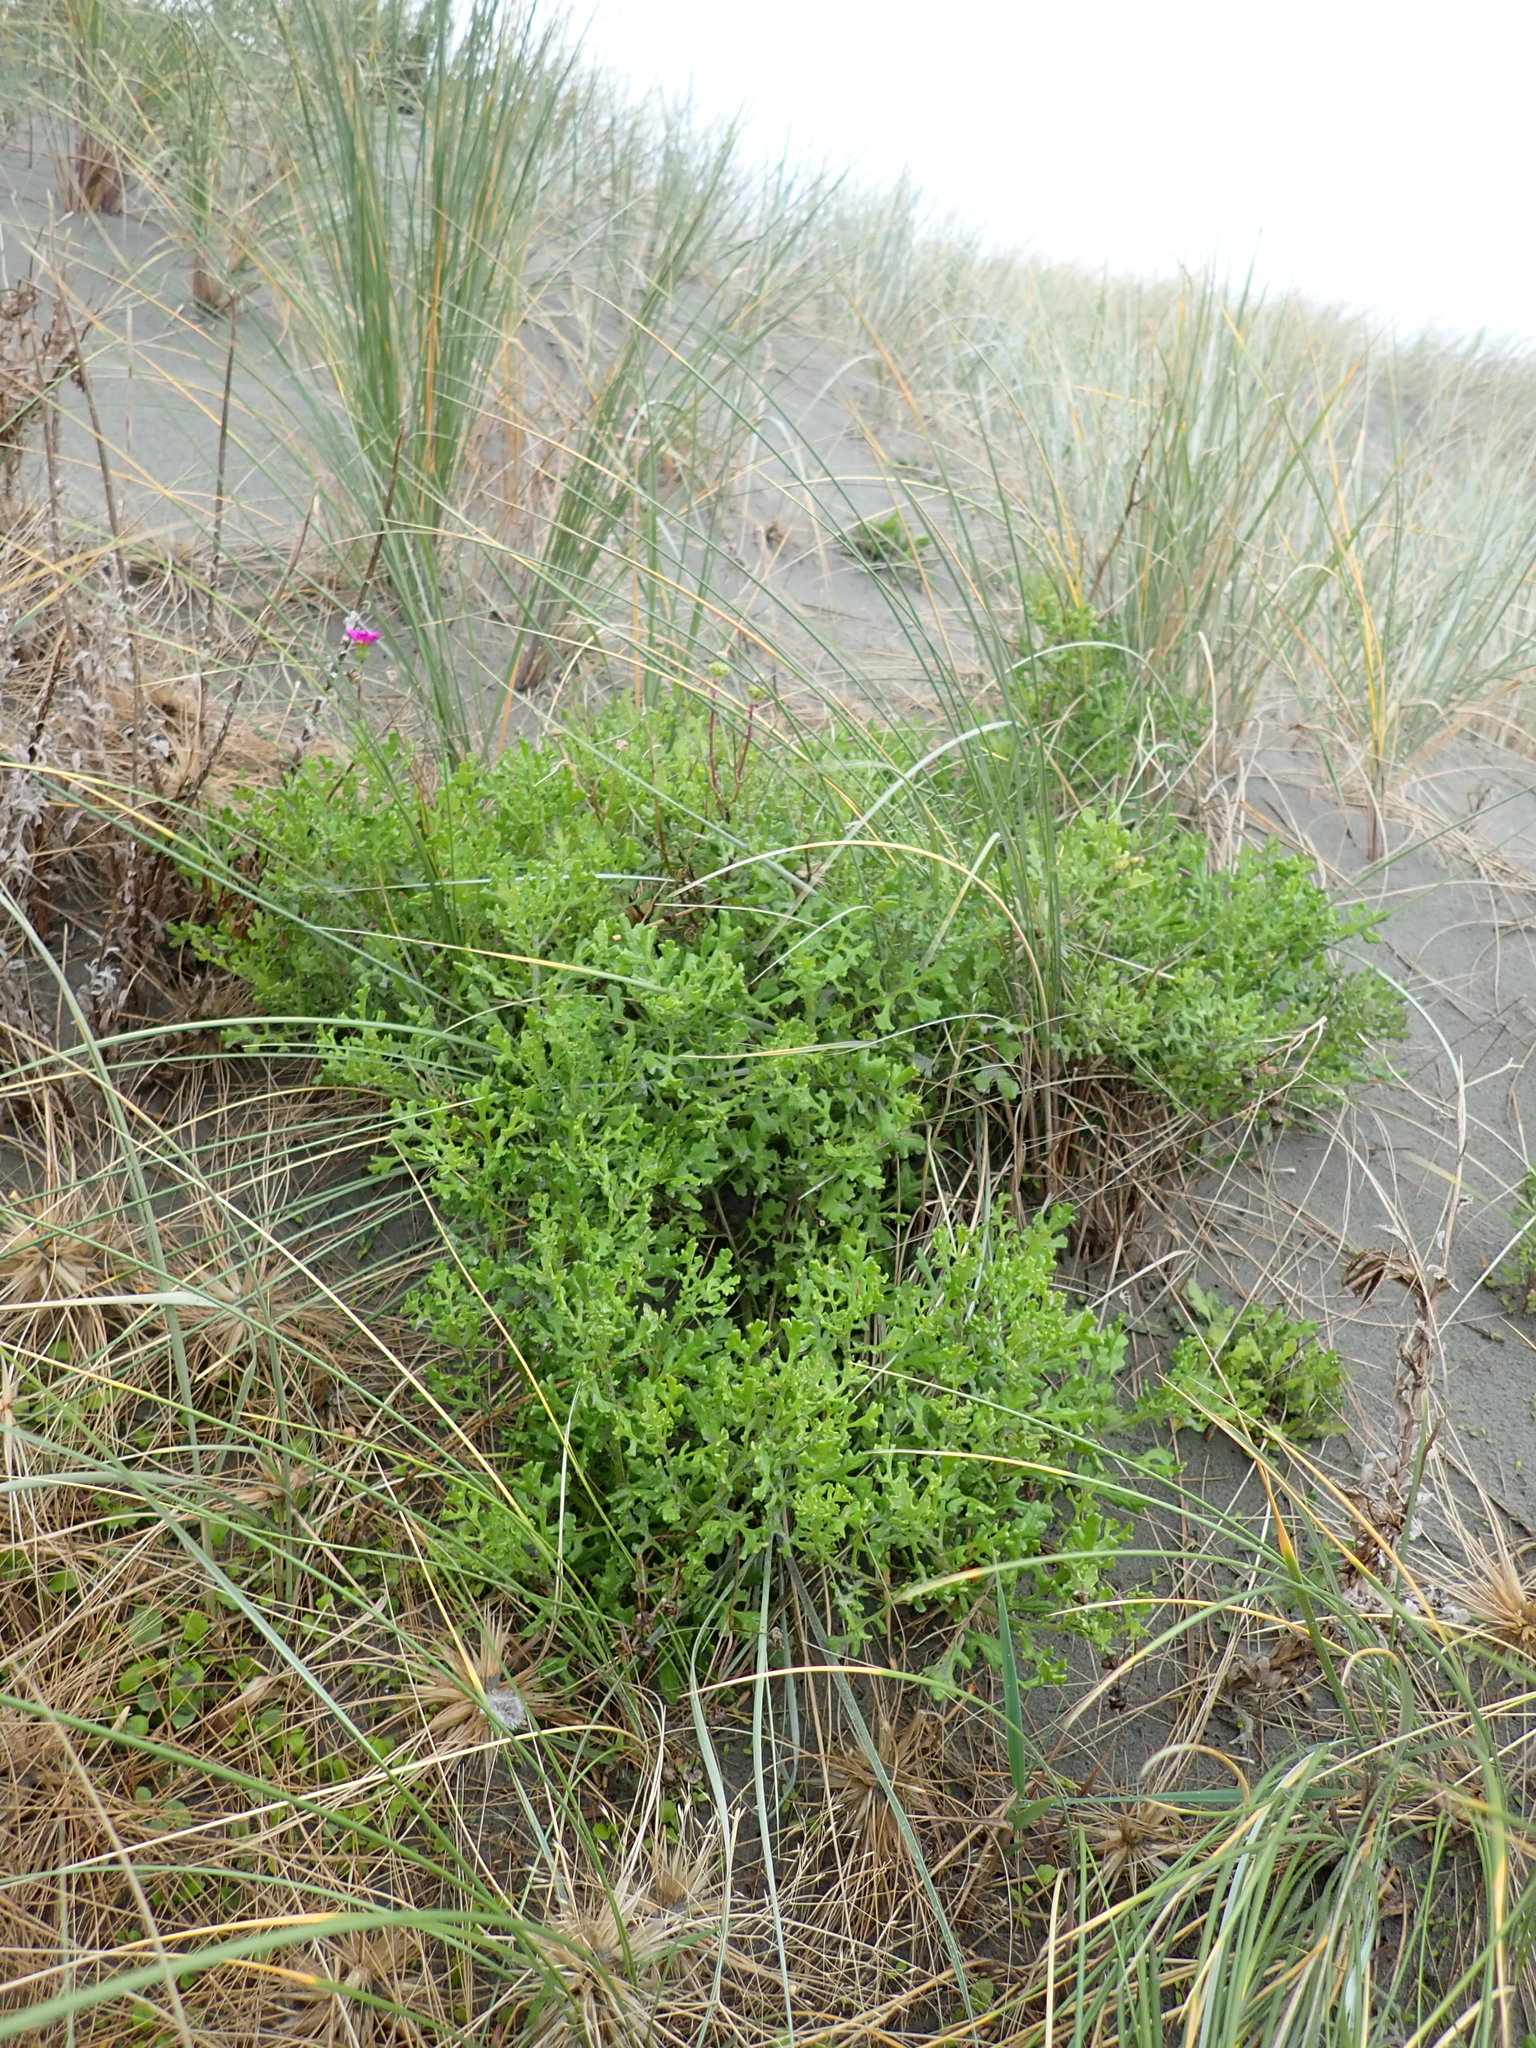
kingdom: Plantae
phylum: Tracheophyta
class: Magnoliopsida
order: Asterales
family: Asteraceae
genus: Senecio
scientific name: Senecio elegans
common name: Purple groundsel
